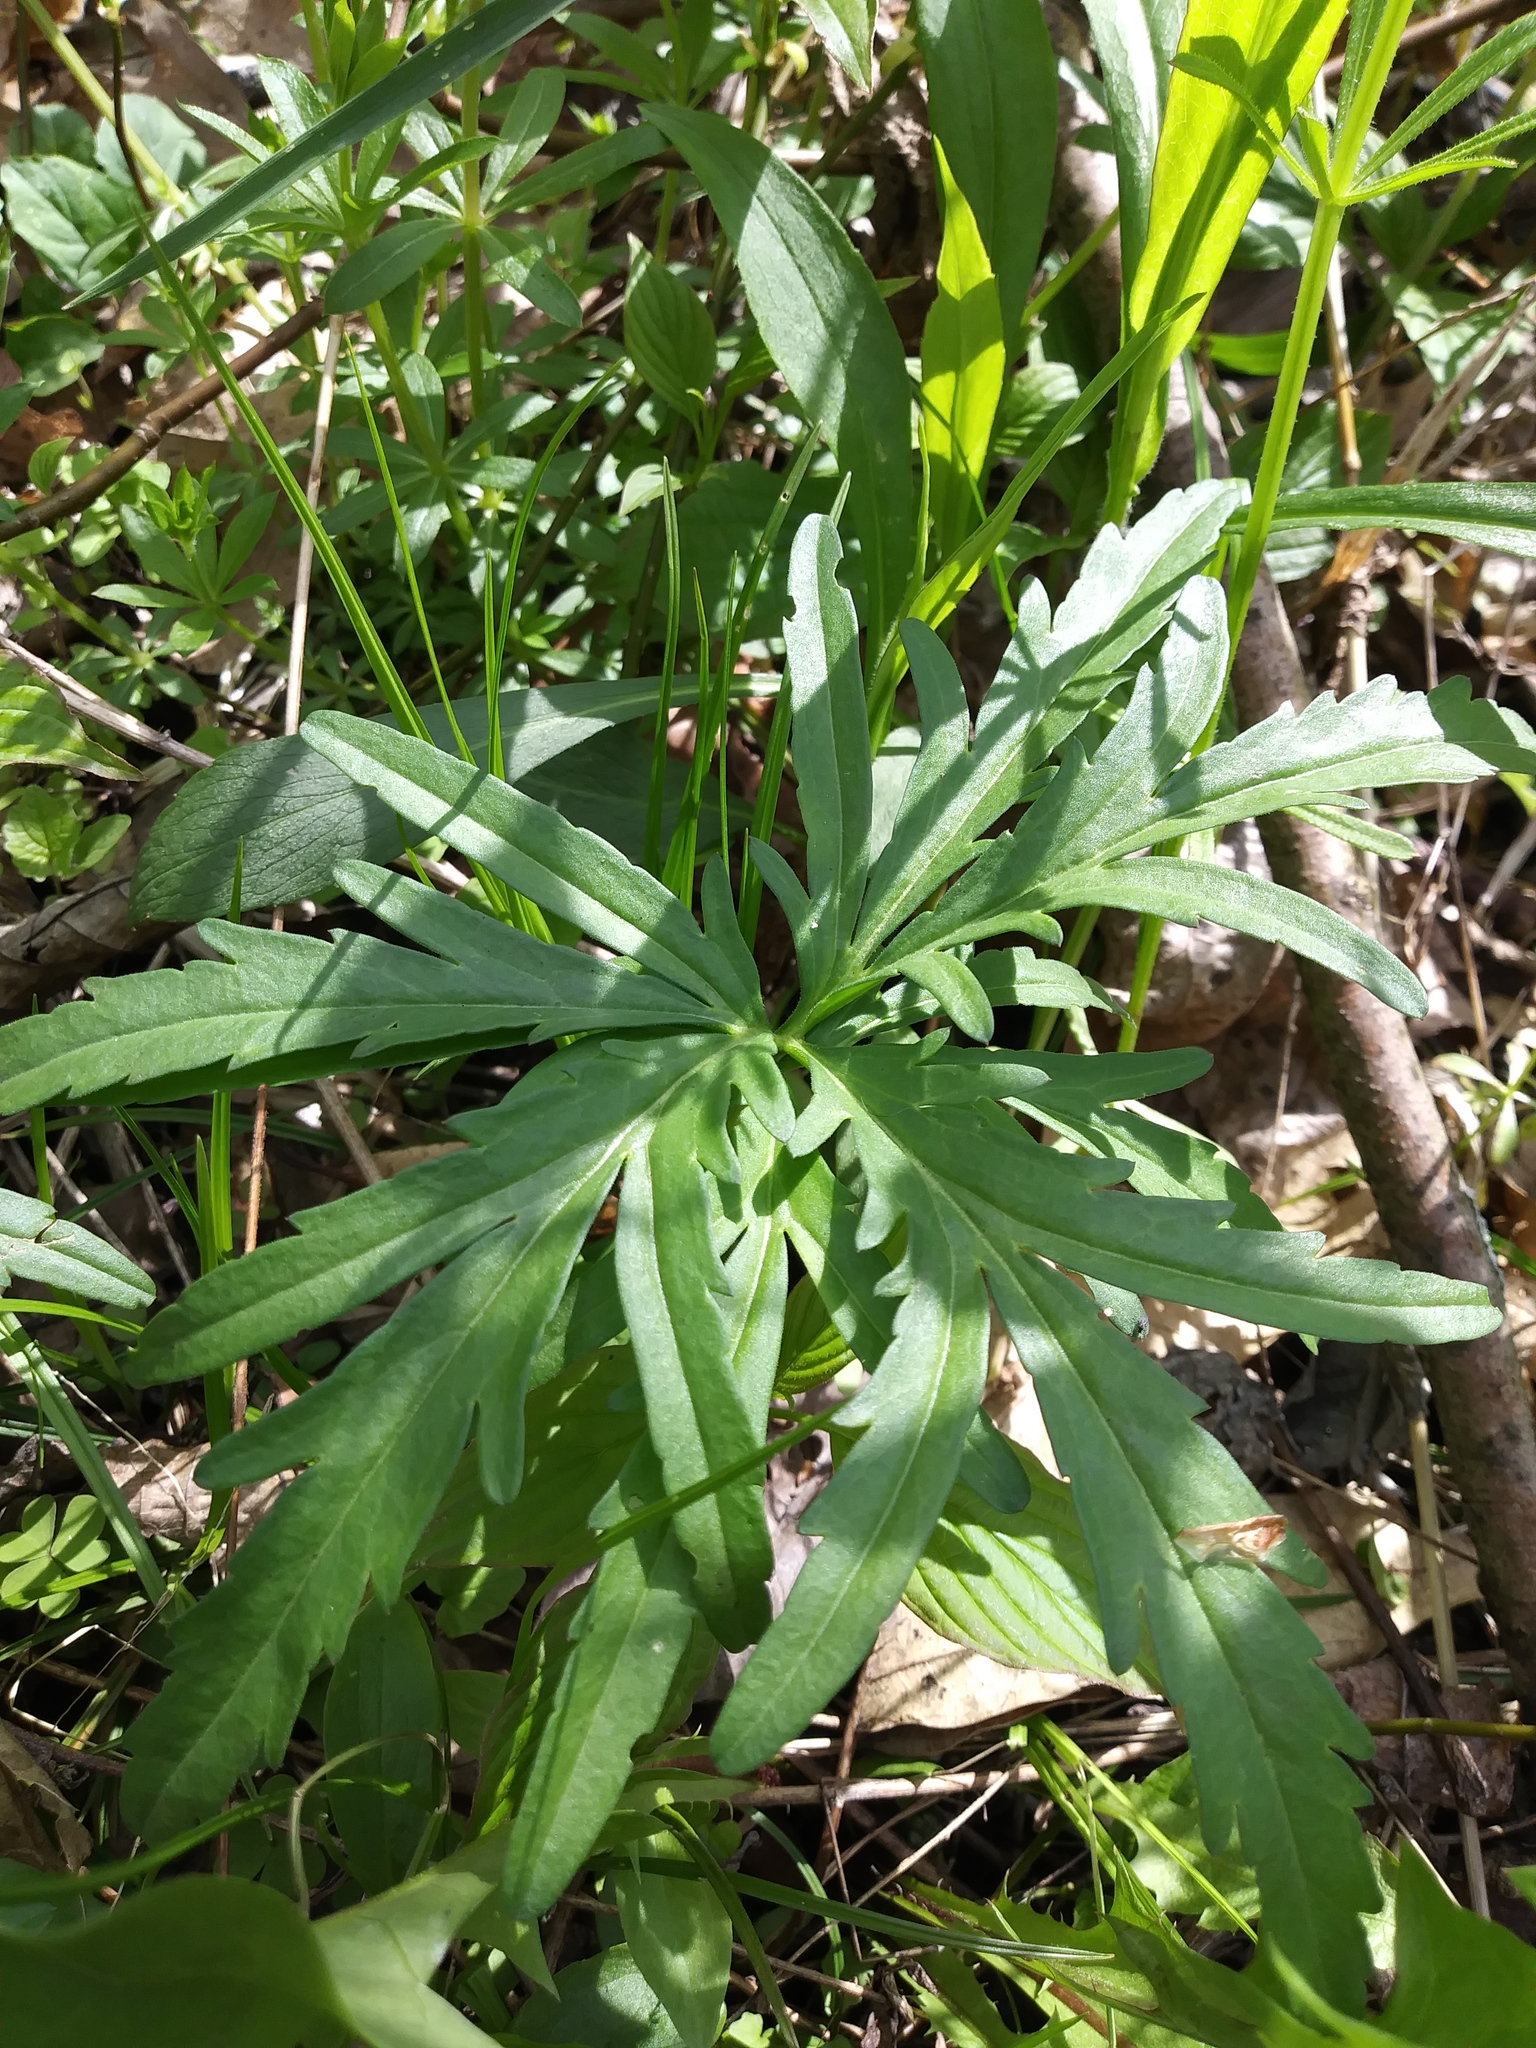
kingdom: Plantae
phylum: Tracheophyta
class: Magnoliopsida
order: Brassicales
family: Brassicaceae
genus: Cardamine
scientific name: Cardamine concatenata
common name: Cut-leaf toothcup
